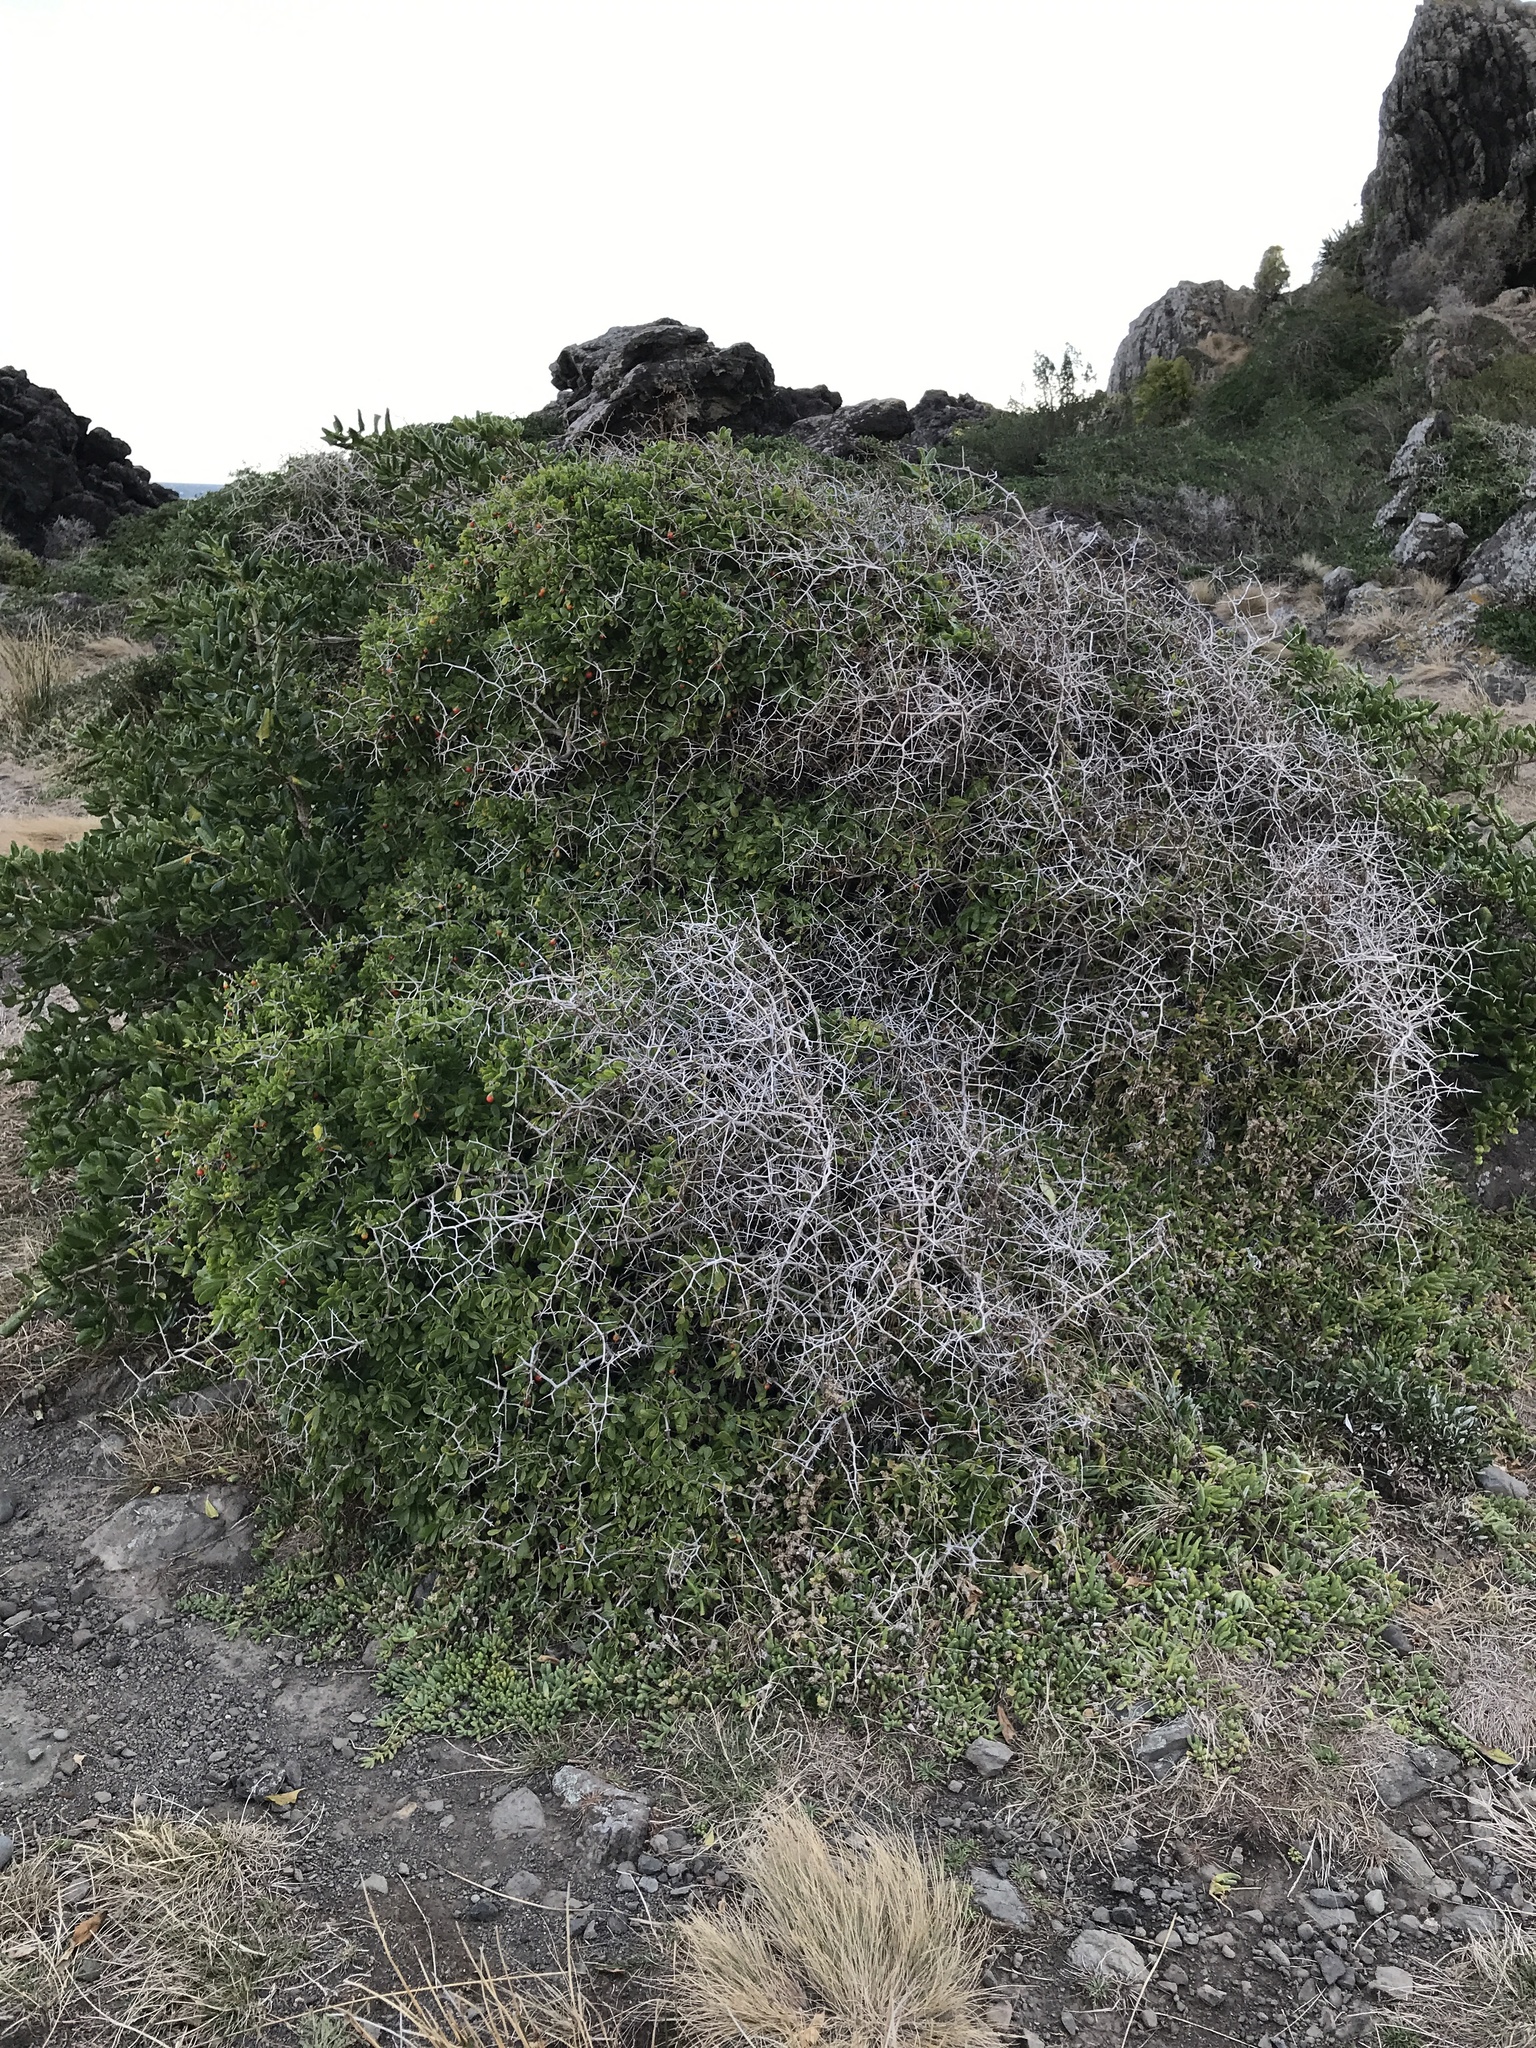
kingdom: Plantae
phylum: Tracheophyta
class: Magnoliopsida
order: Solanales
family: Solanaceae
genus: Lycium
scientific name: Lycium ferocissimum
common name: African boxthorn
